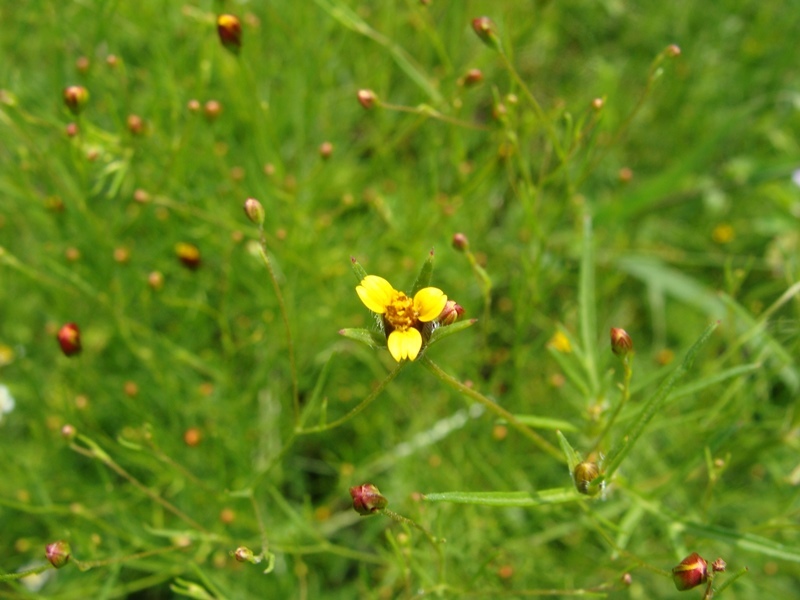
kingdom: Plantae
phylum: Tracheophyta
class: Magnoliopsida
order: Asterales
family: Asteraceae
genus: Heterosperma
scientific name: Heterosperma pinnatum
